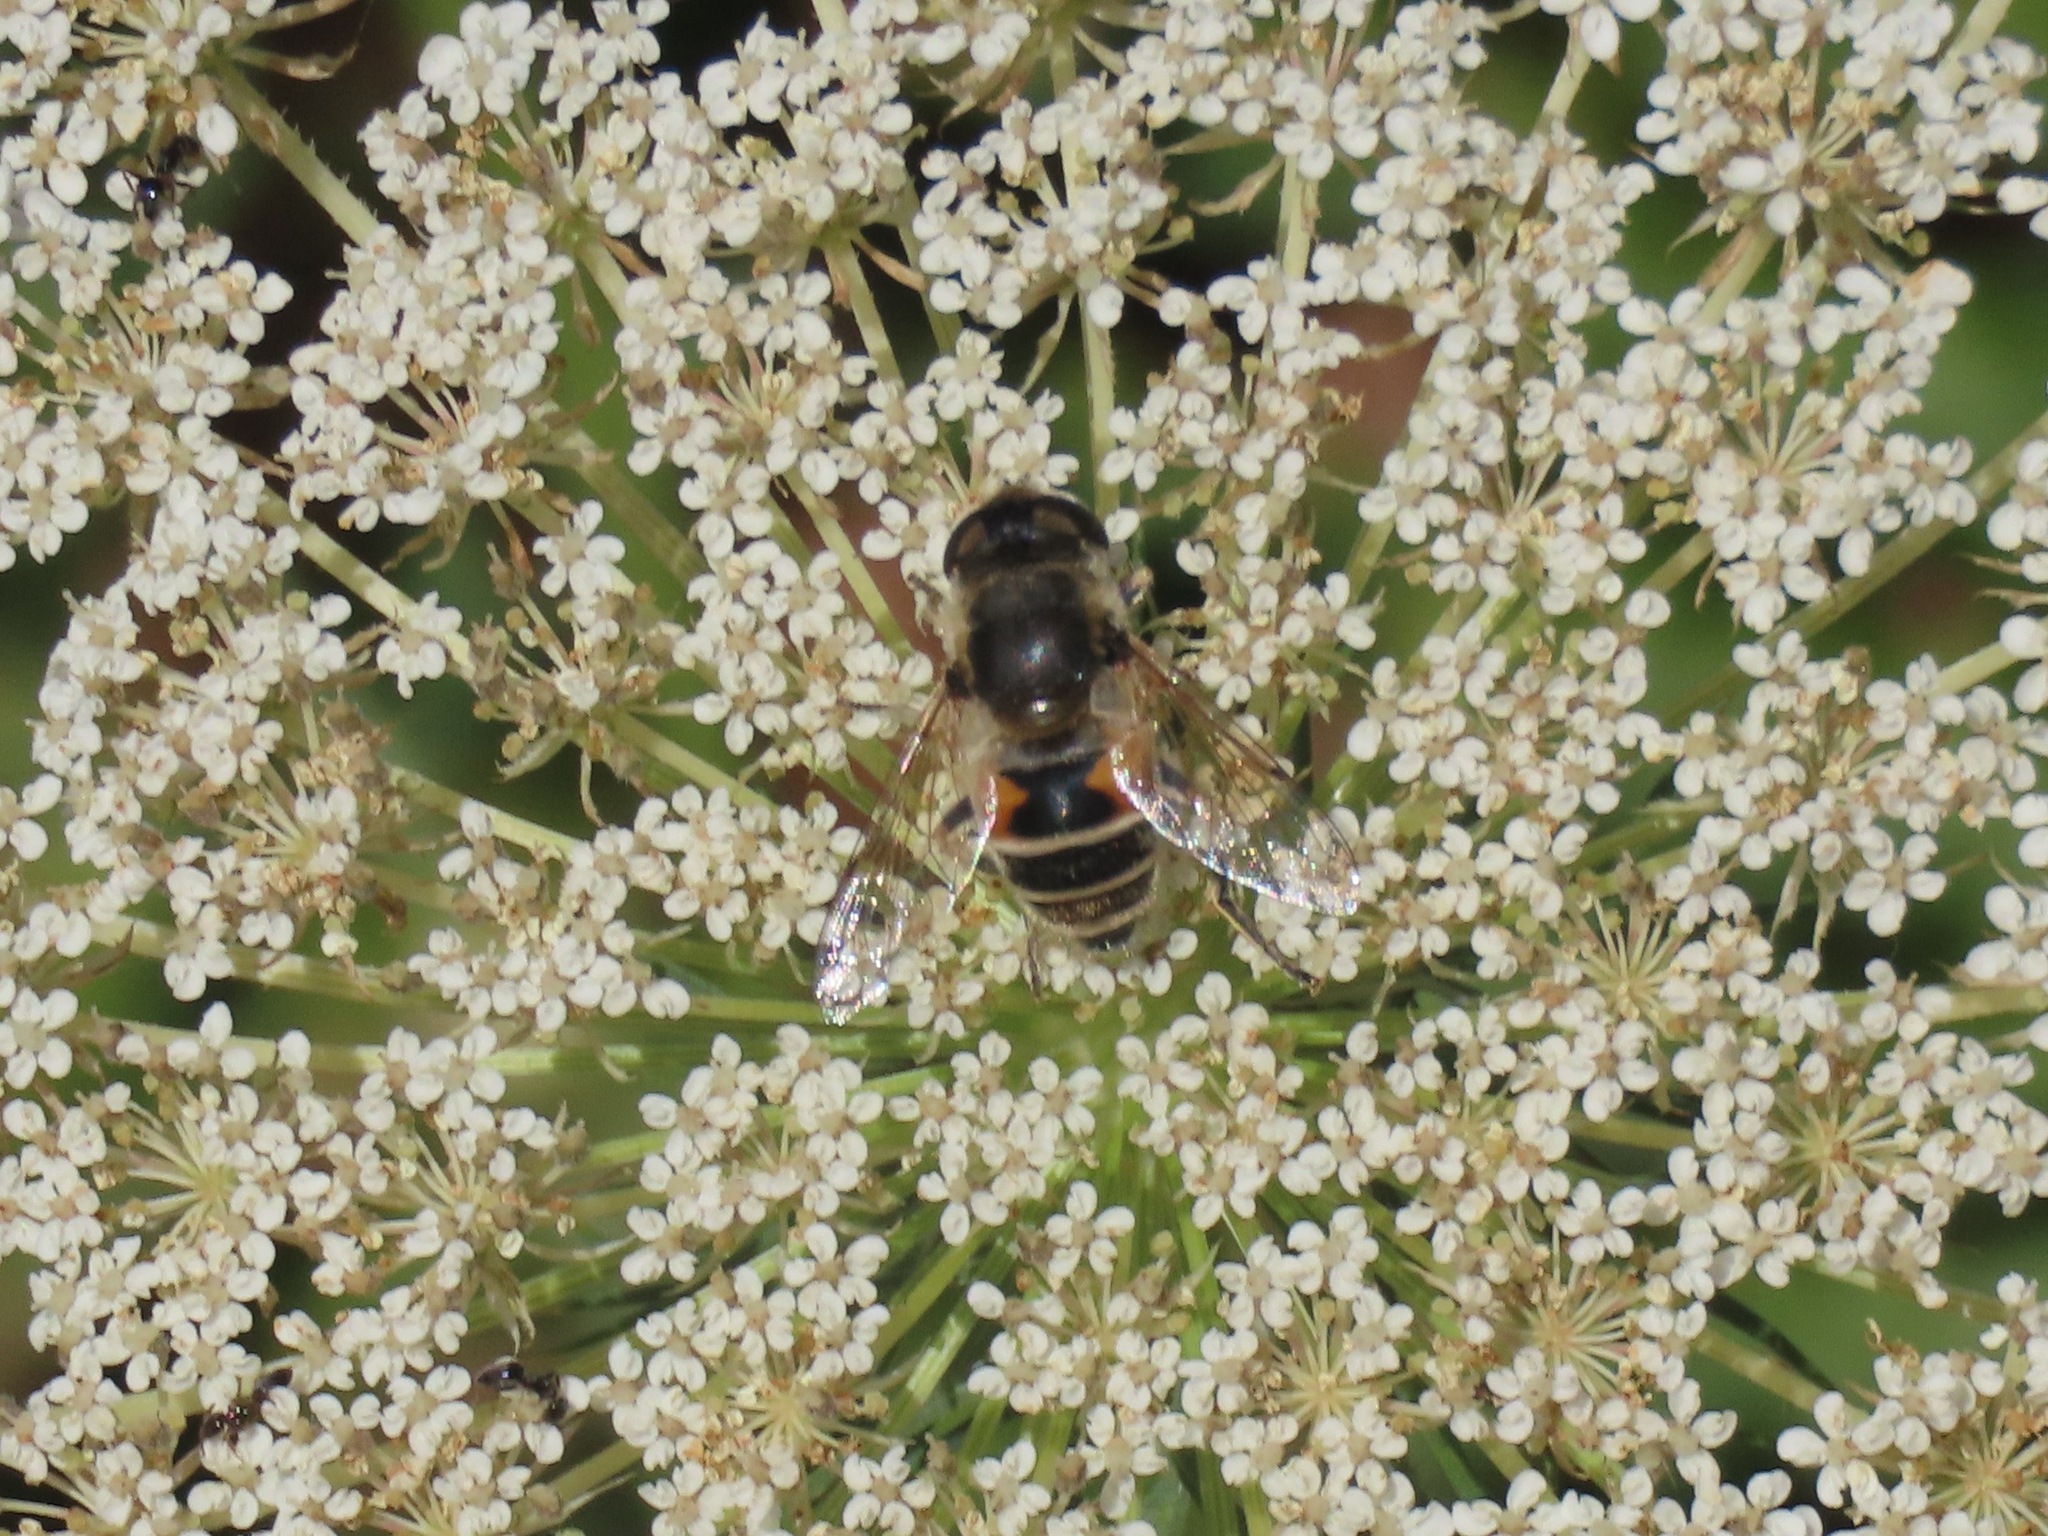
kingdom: Animalia
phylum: Arthropoda
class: Insecta
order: Diptera
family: Syrphidae
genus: Eristalis
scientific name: Eristalis arbustorum
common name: Hover fly
